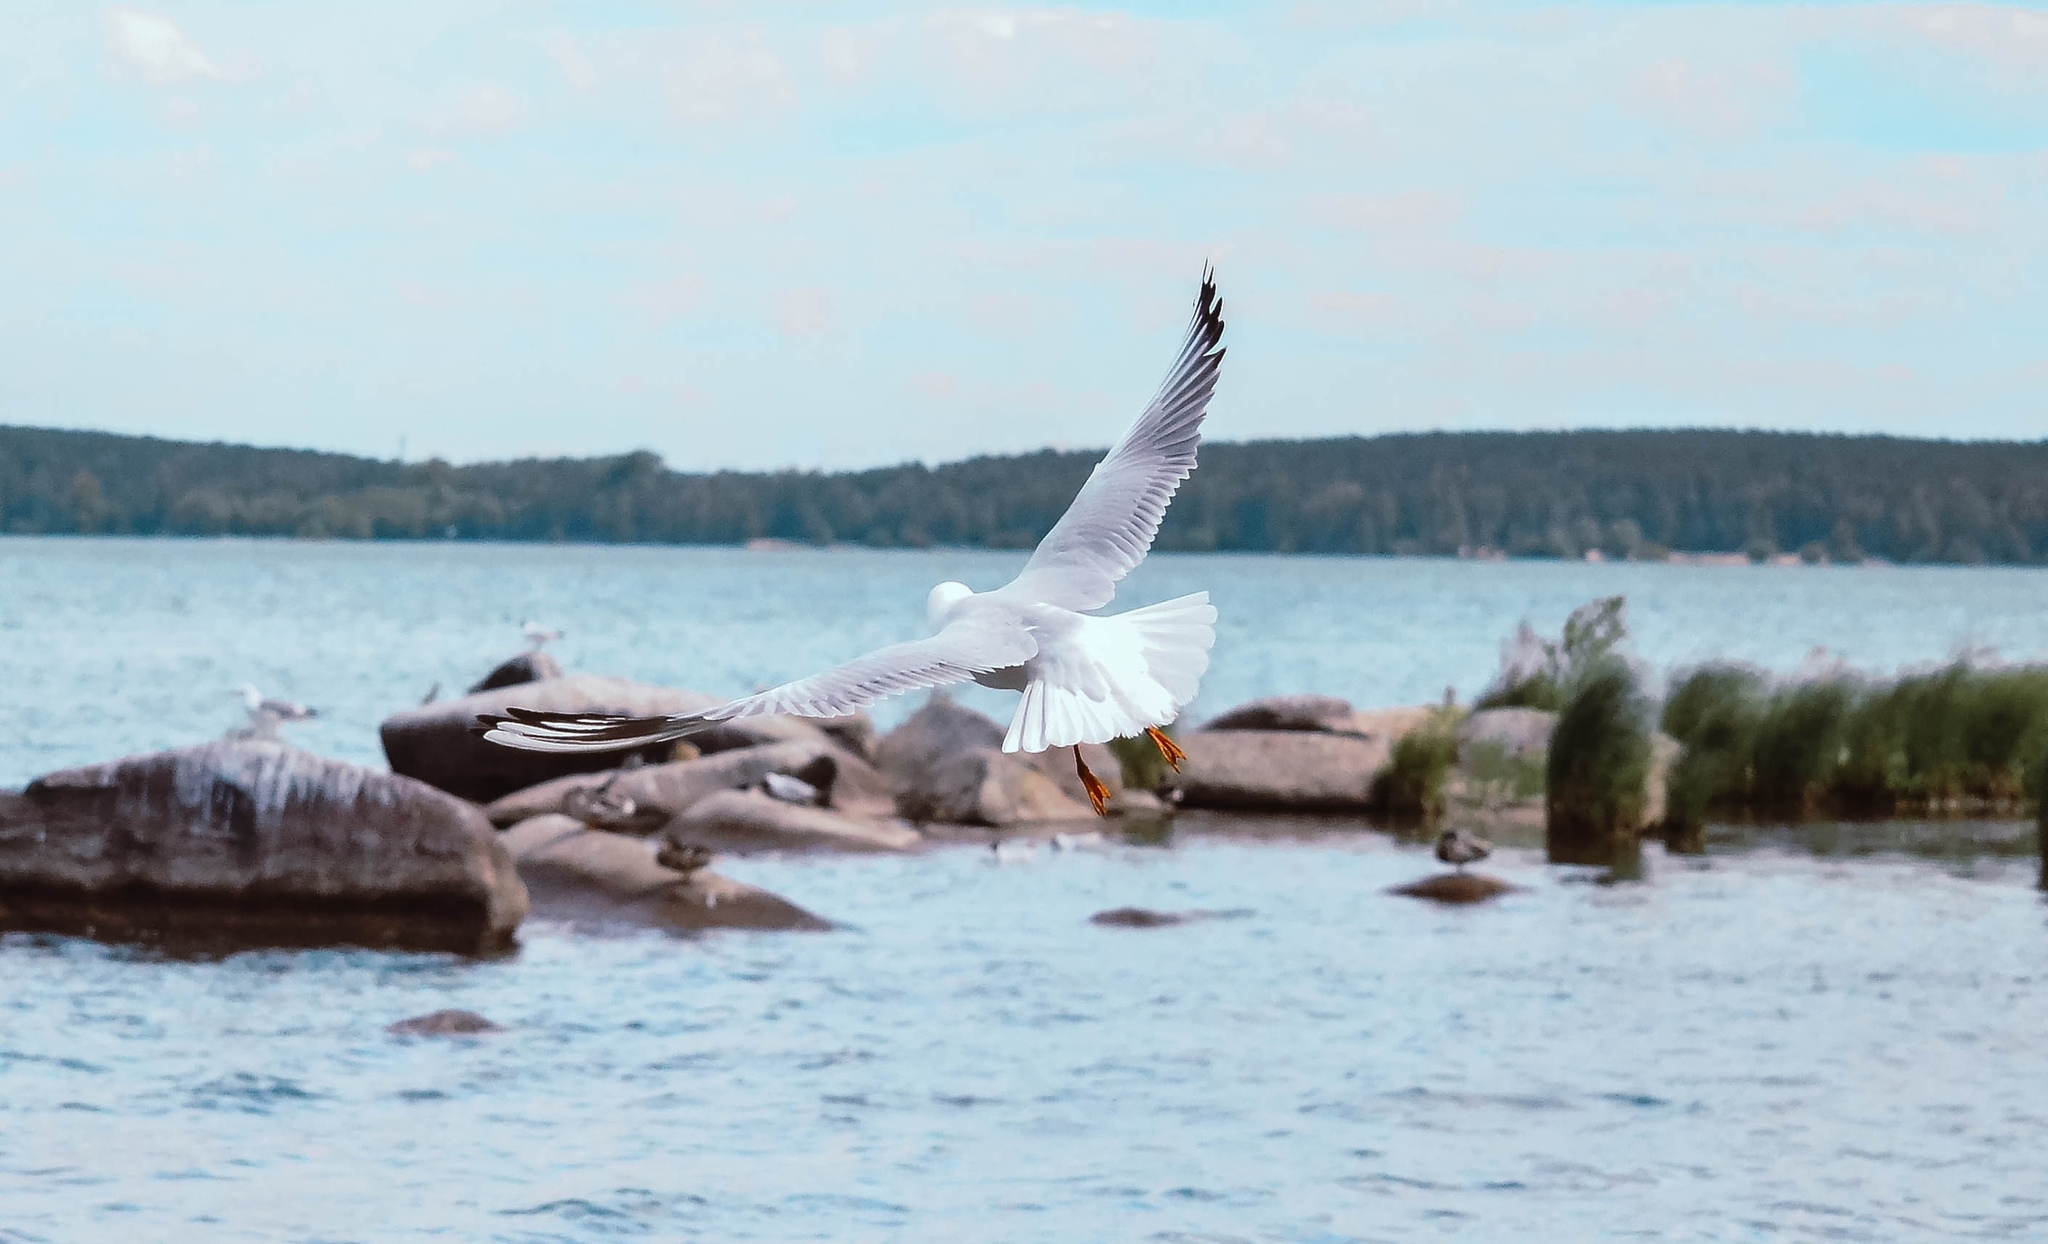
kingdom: Animalia
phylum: Chordata
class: Aves
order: Charadriiformes
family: Laridae
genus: Larus
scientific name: Larus canus
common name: Mew gull
